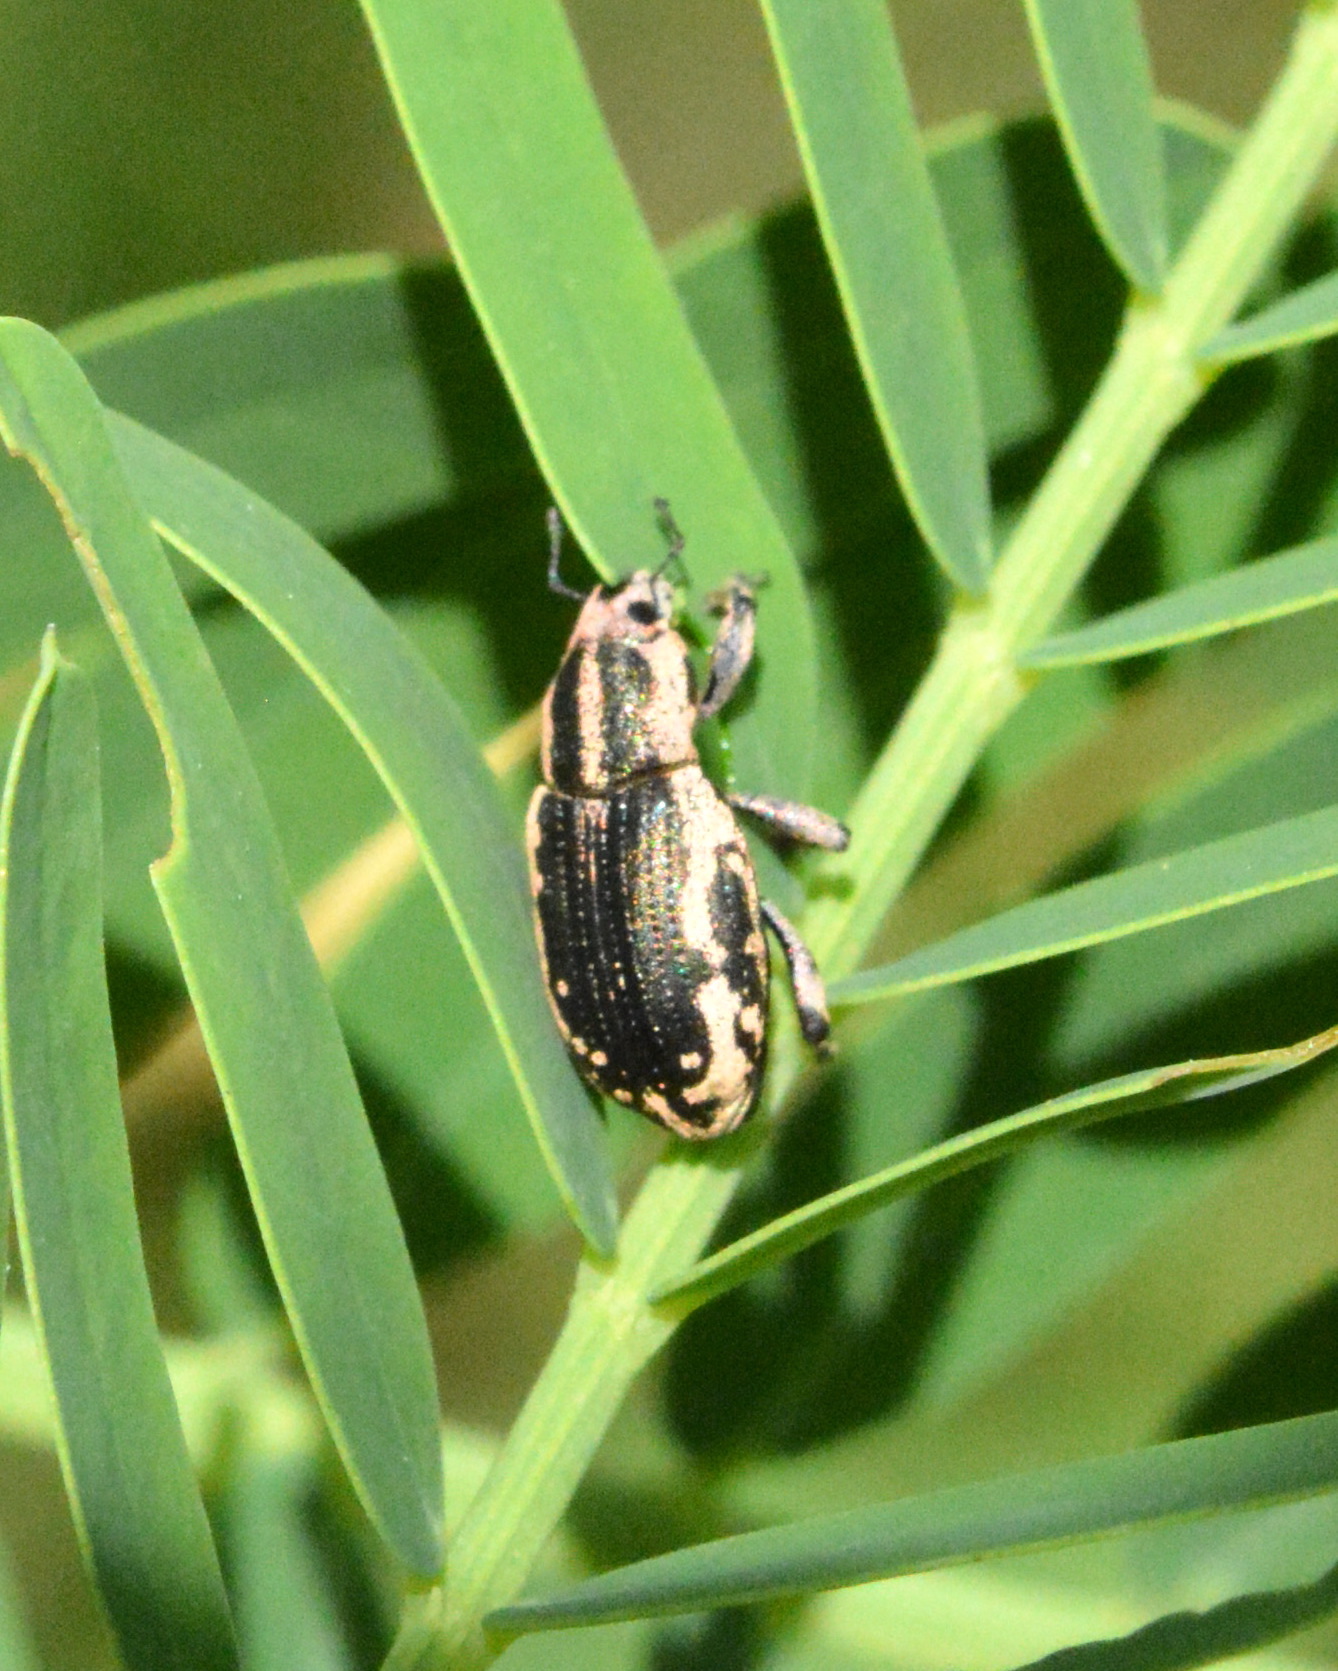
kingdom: Animalia
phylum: Arthropoda
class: Insecta
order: Coleoptera
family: Curculionidae
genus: Eudiagogus
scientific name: Eudiagogus rosenschoeldi
